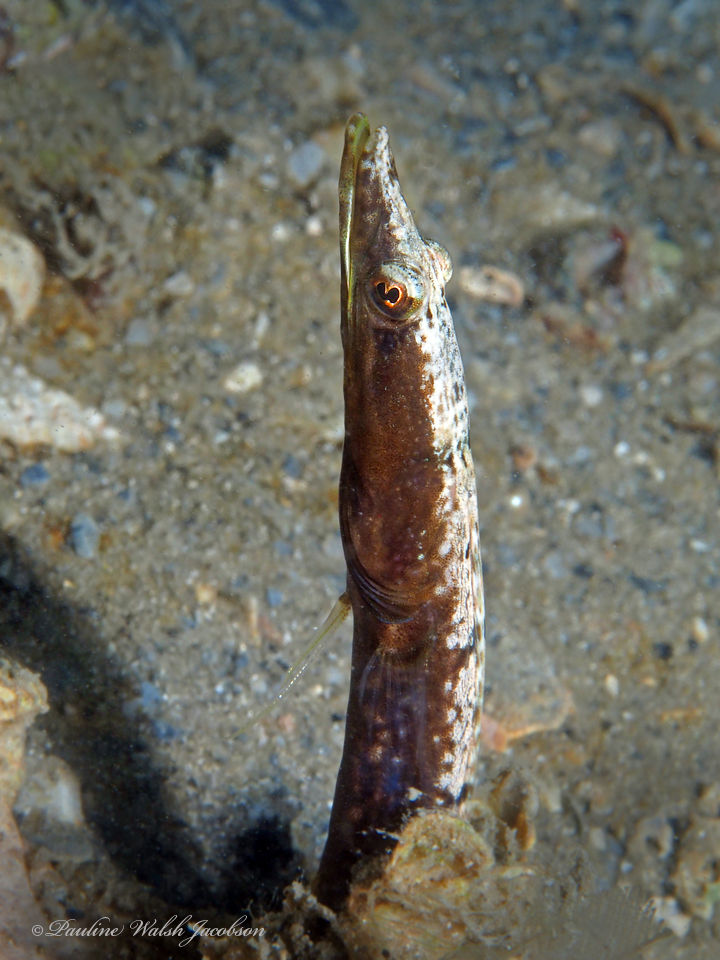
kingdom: Animalia
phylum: Chordata
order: Perciformes
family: Chaenopsidae
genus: Chaenopsis
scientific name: Chaenopsis ocellata
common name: Bluethroat pikeblenny
